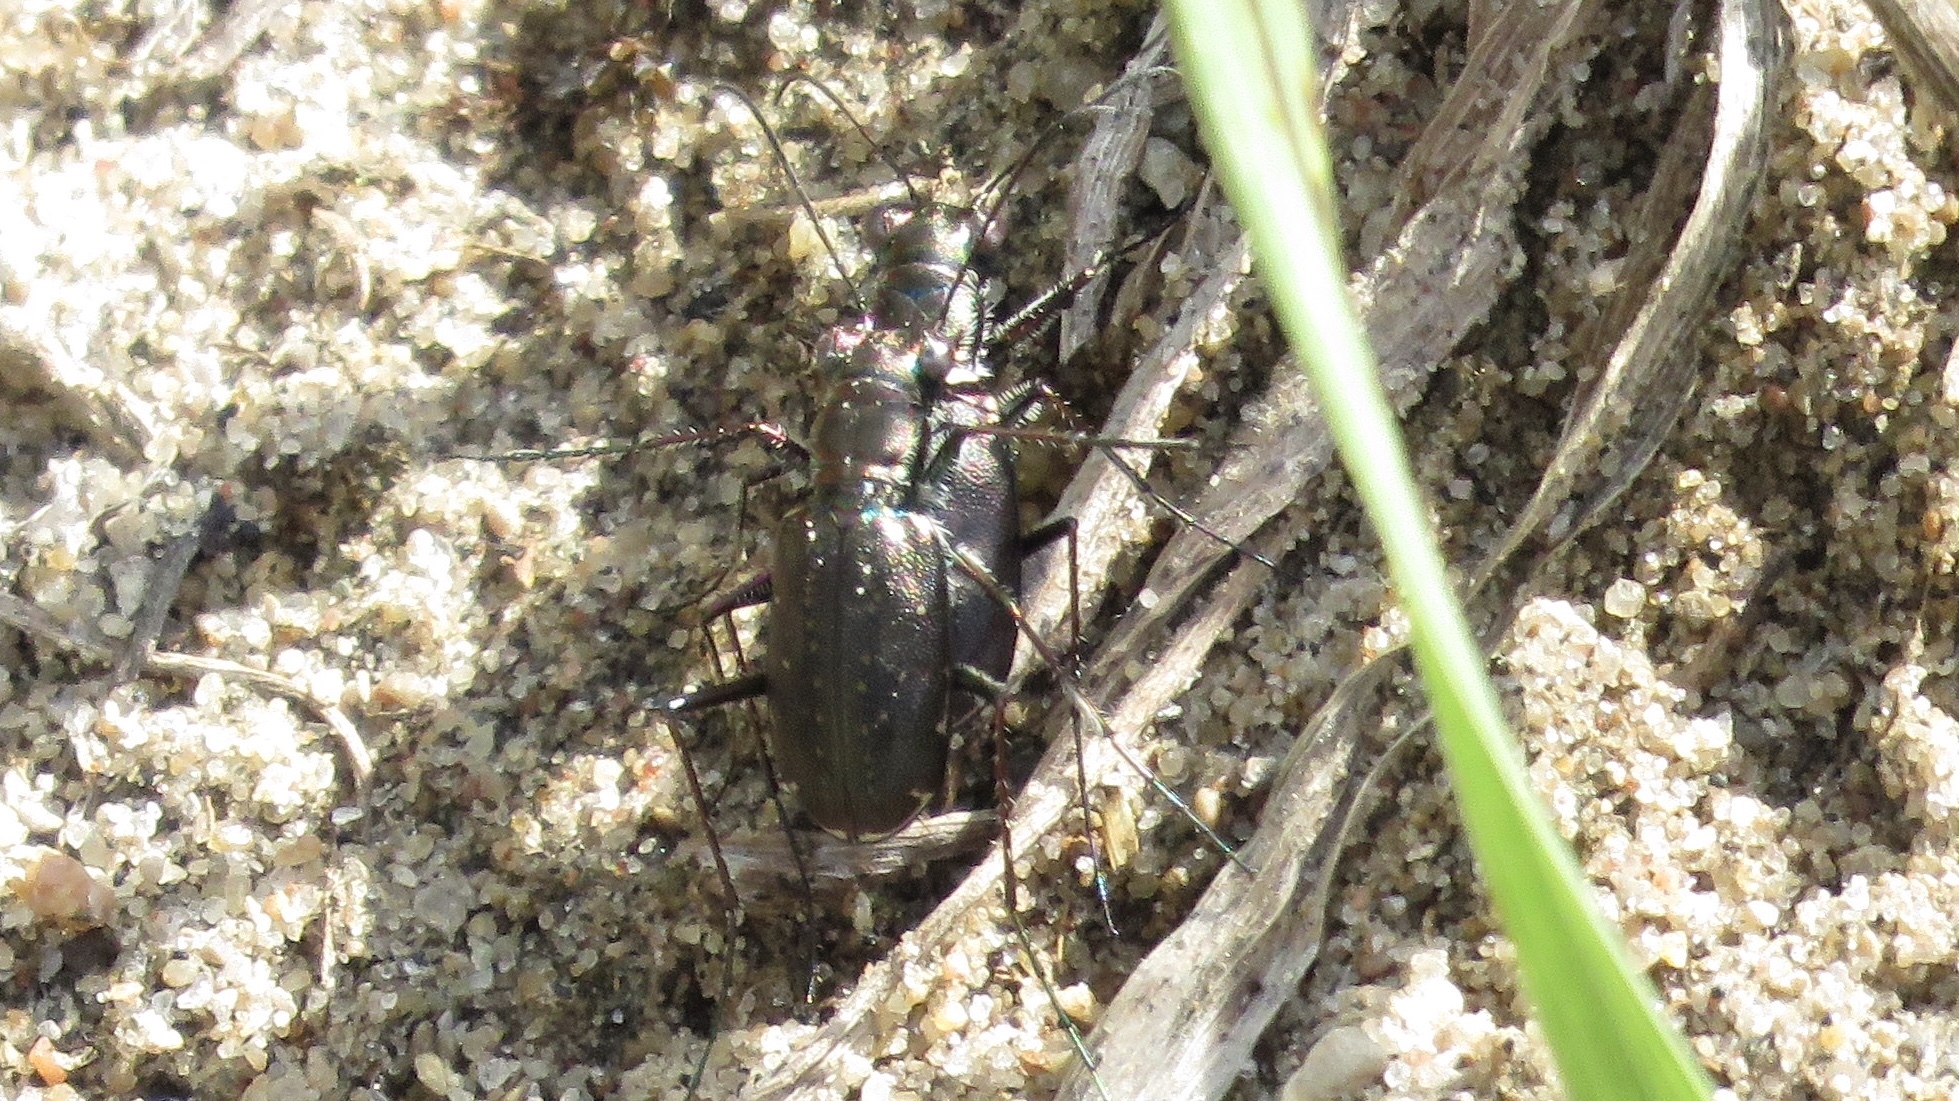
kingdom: Animalia
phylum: Arthropoda
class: Insecta
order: Coleoptera
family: Carabidae
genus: Cicindela
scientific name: Cicindela punctulata
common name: Punctured tiger beetle
